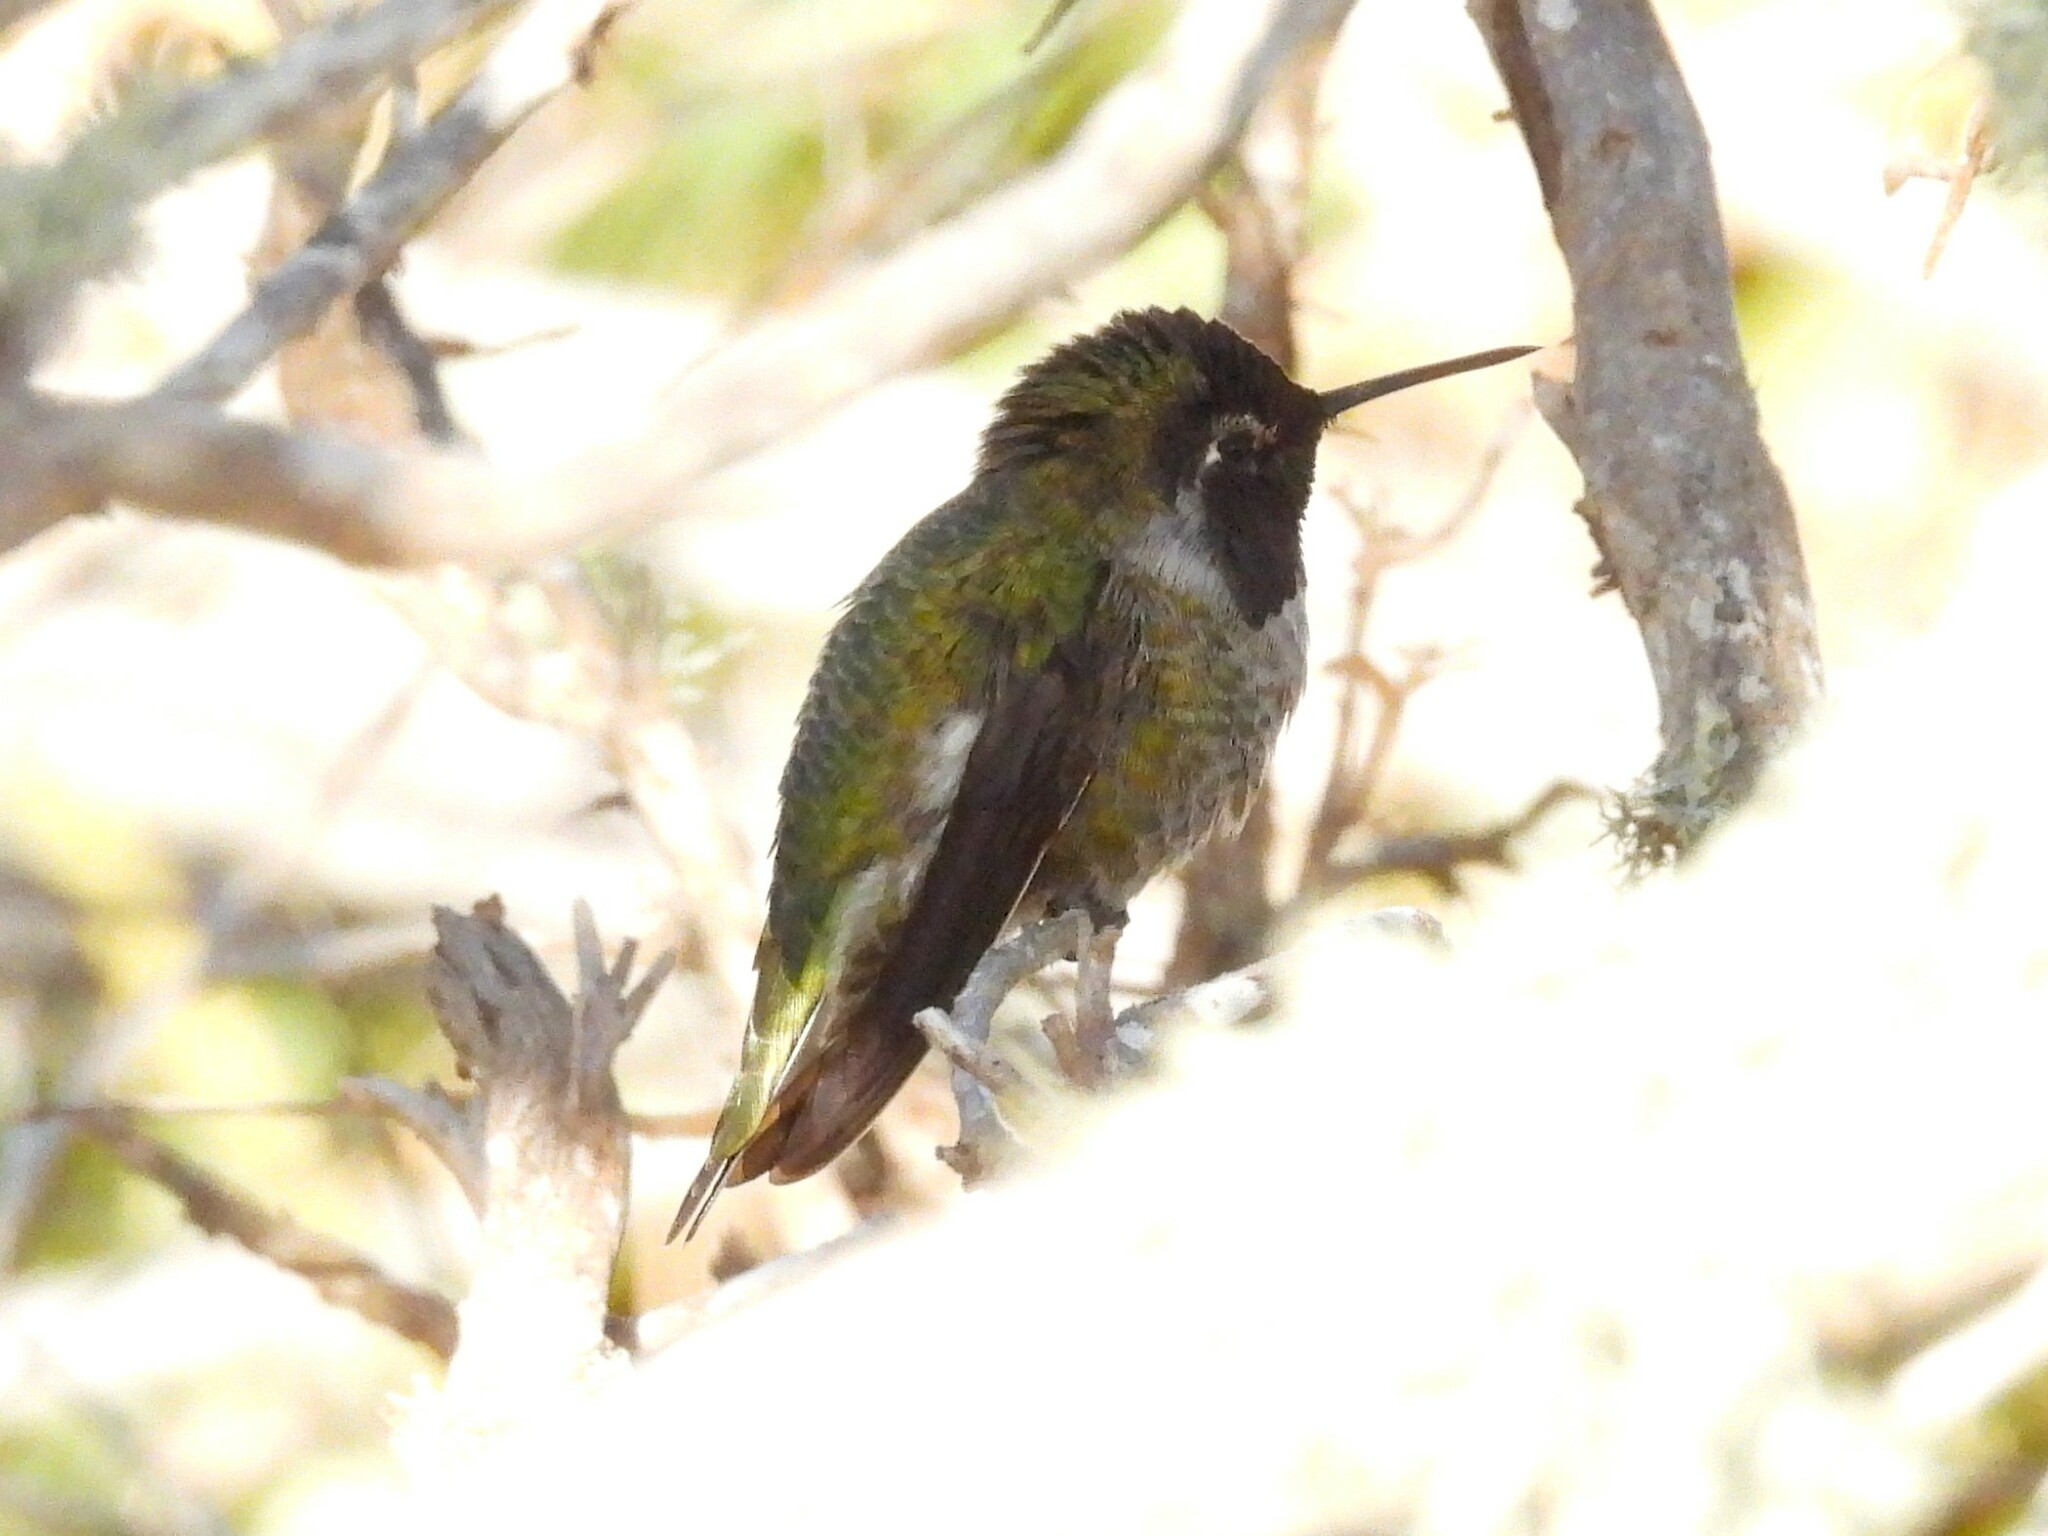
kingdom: Animalia
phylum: Chordata
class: Aves
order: Apodiformes
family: Trochilidae
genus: Calypte
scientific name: Calypte anna
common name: Anna's hummingbird
